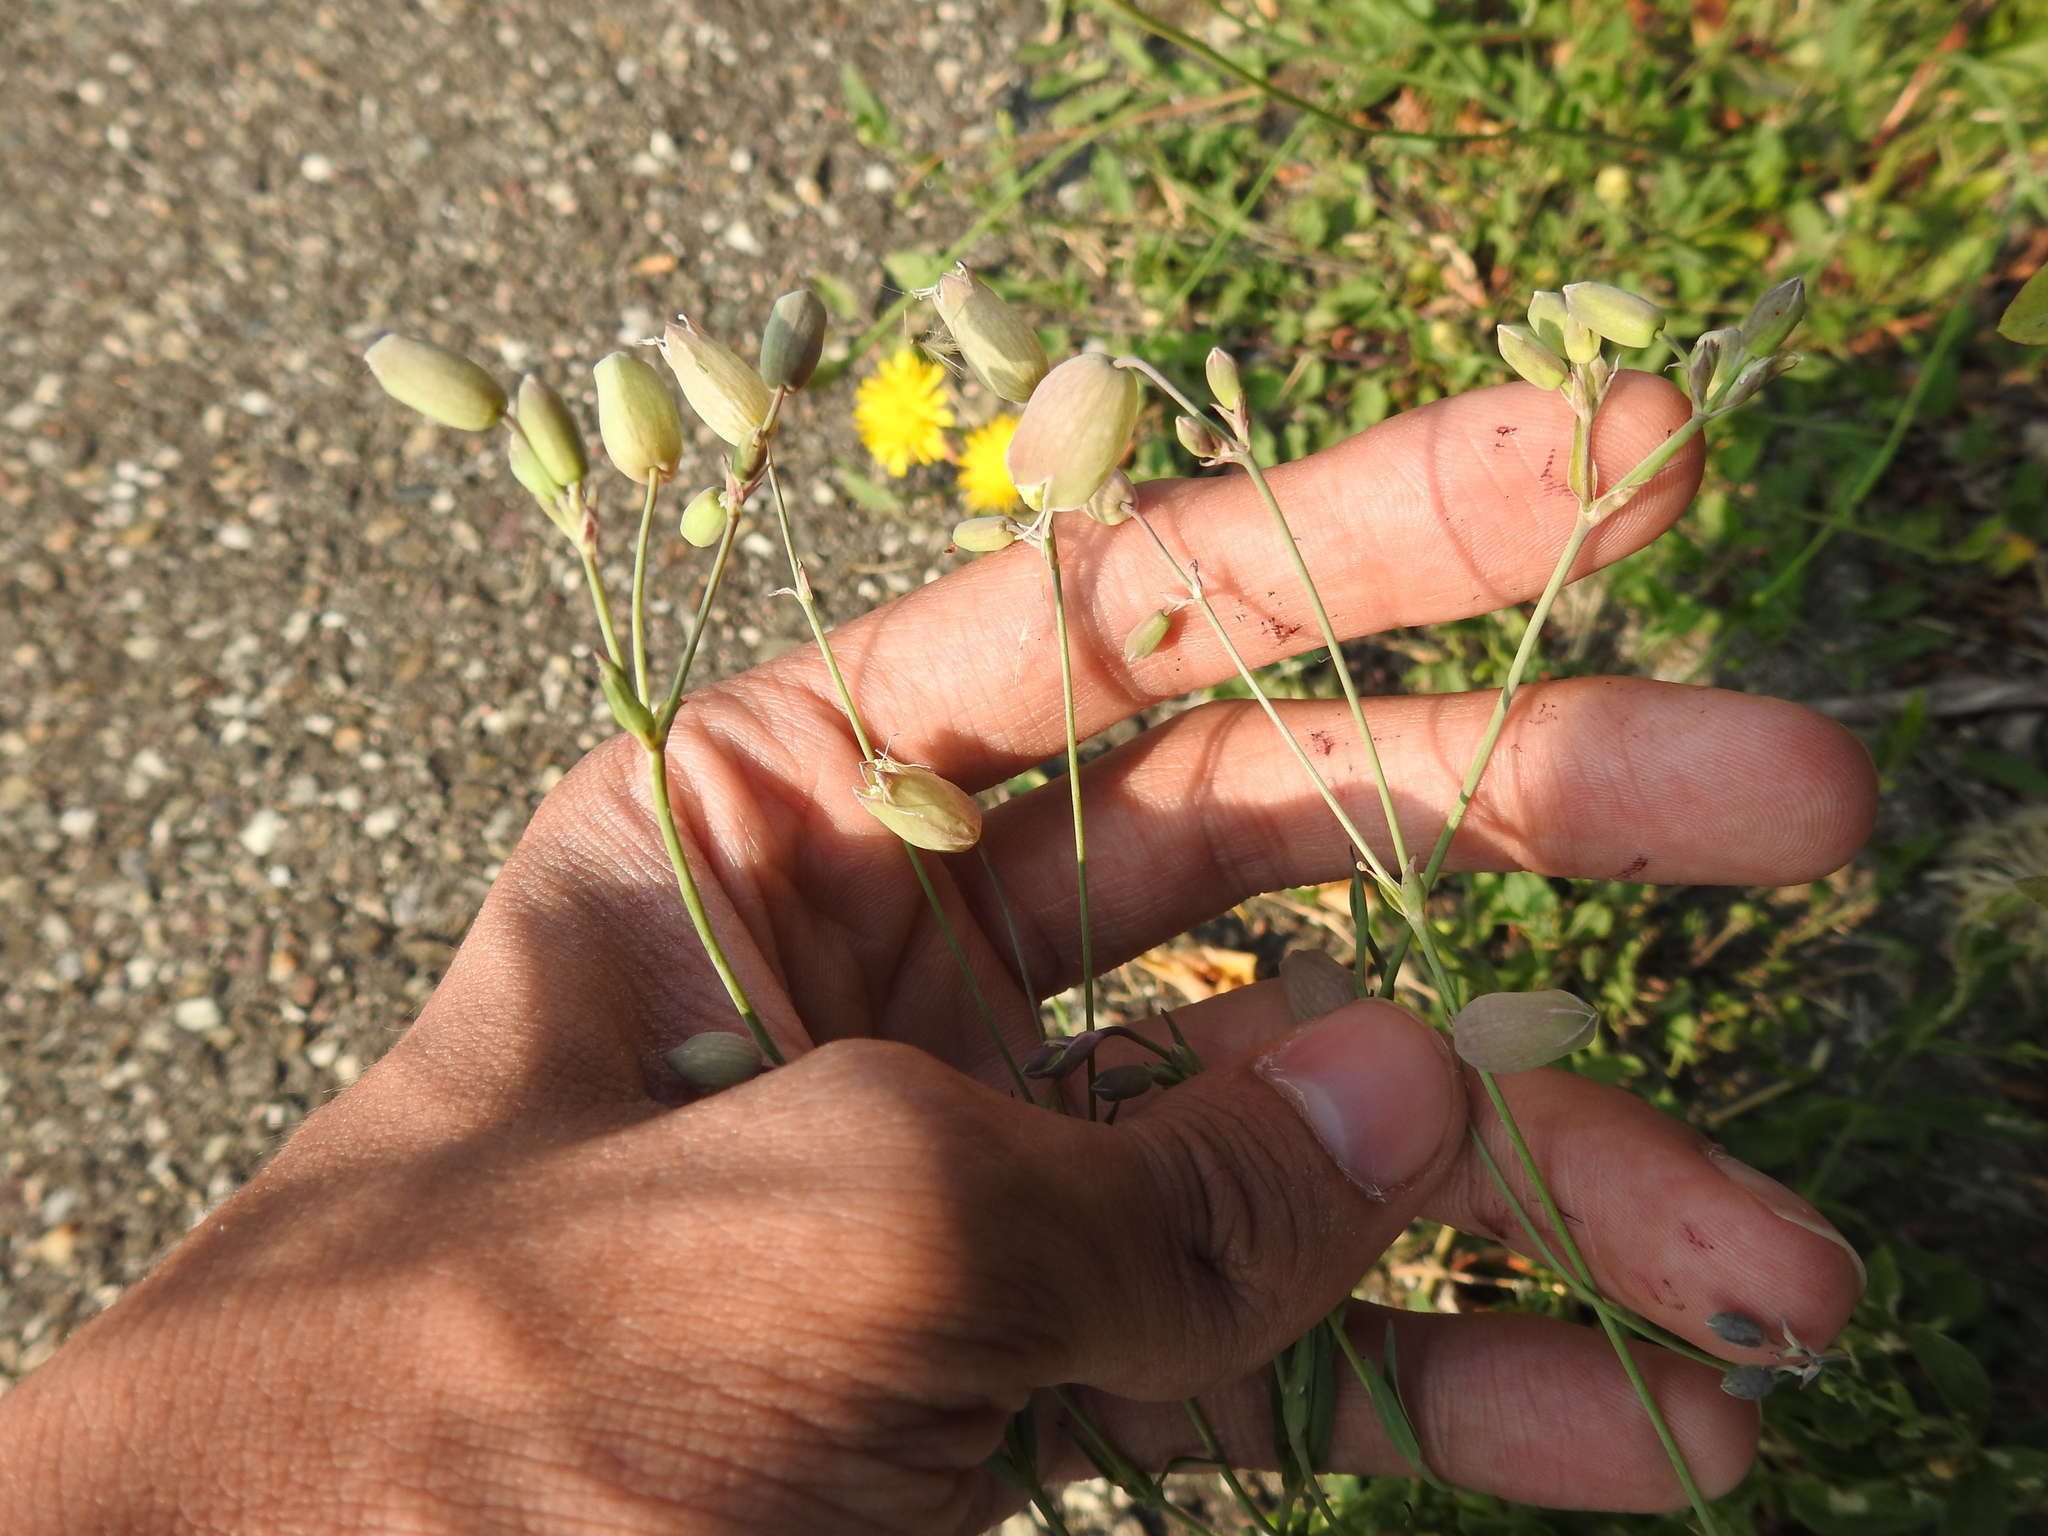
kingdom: Plantae
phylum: Tracheophyta
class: Magnoliopsida
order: Caryophyllales
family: Caryophyllaceae
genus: Silene
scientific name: Silene vulgaris
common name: Bladder campion
